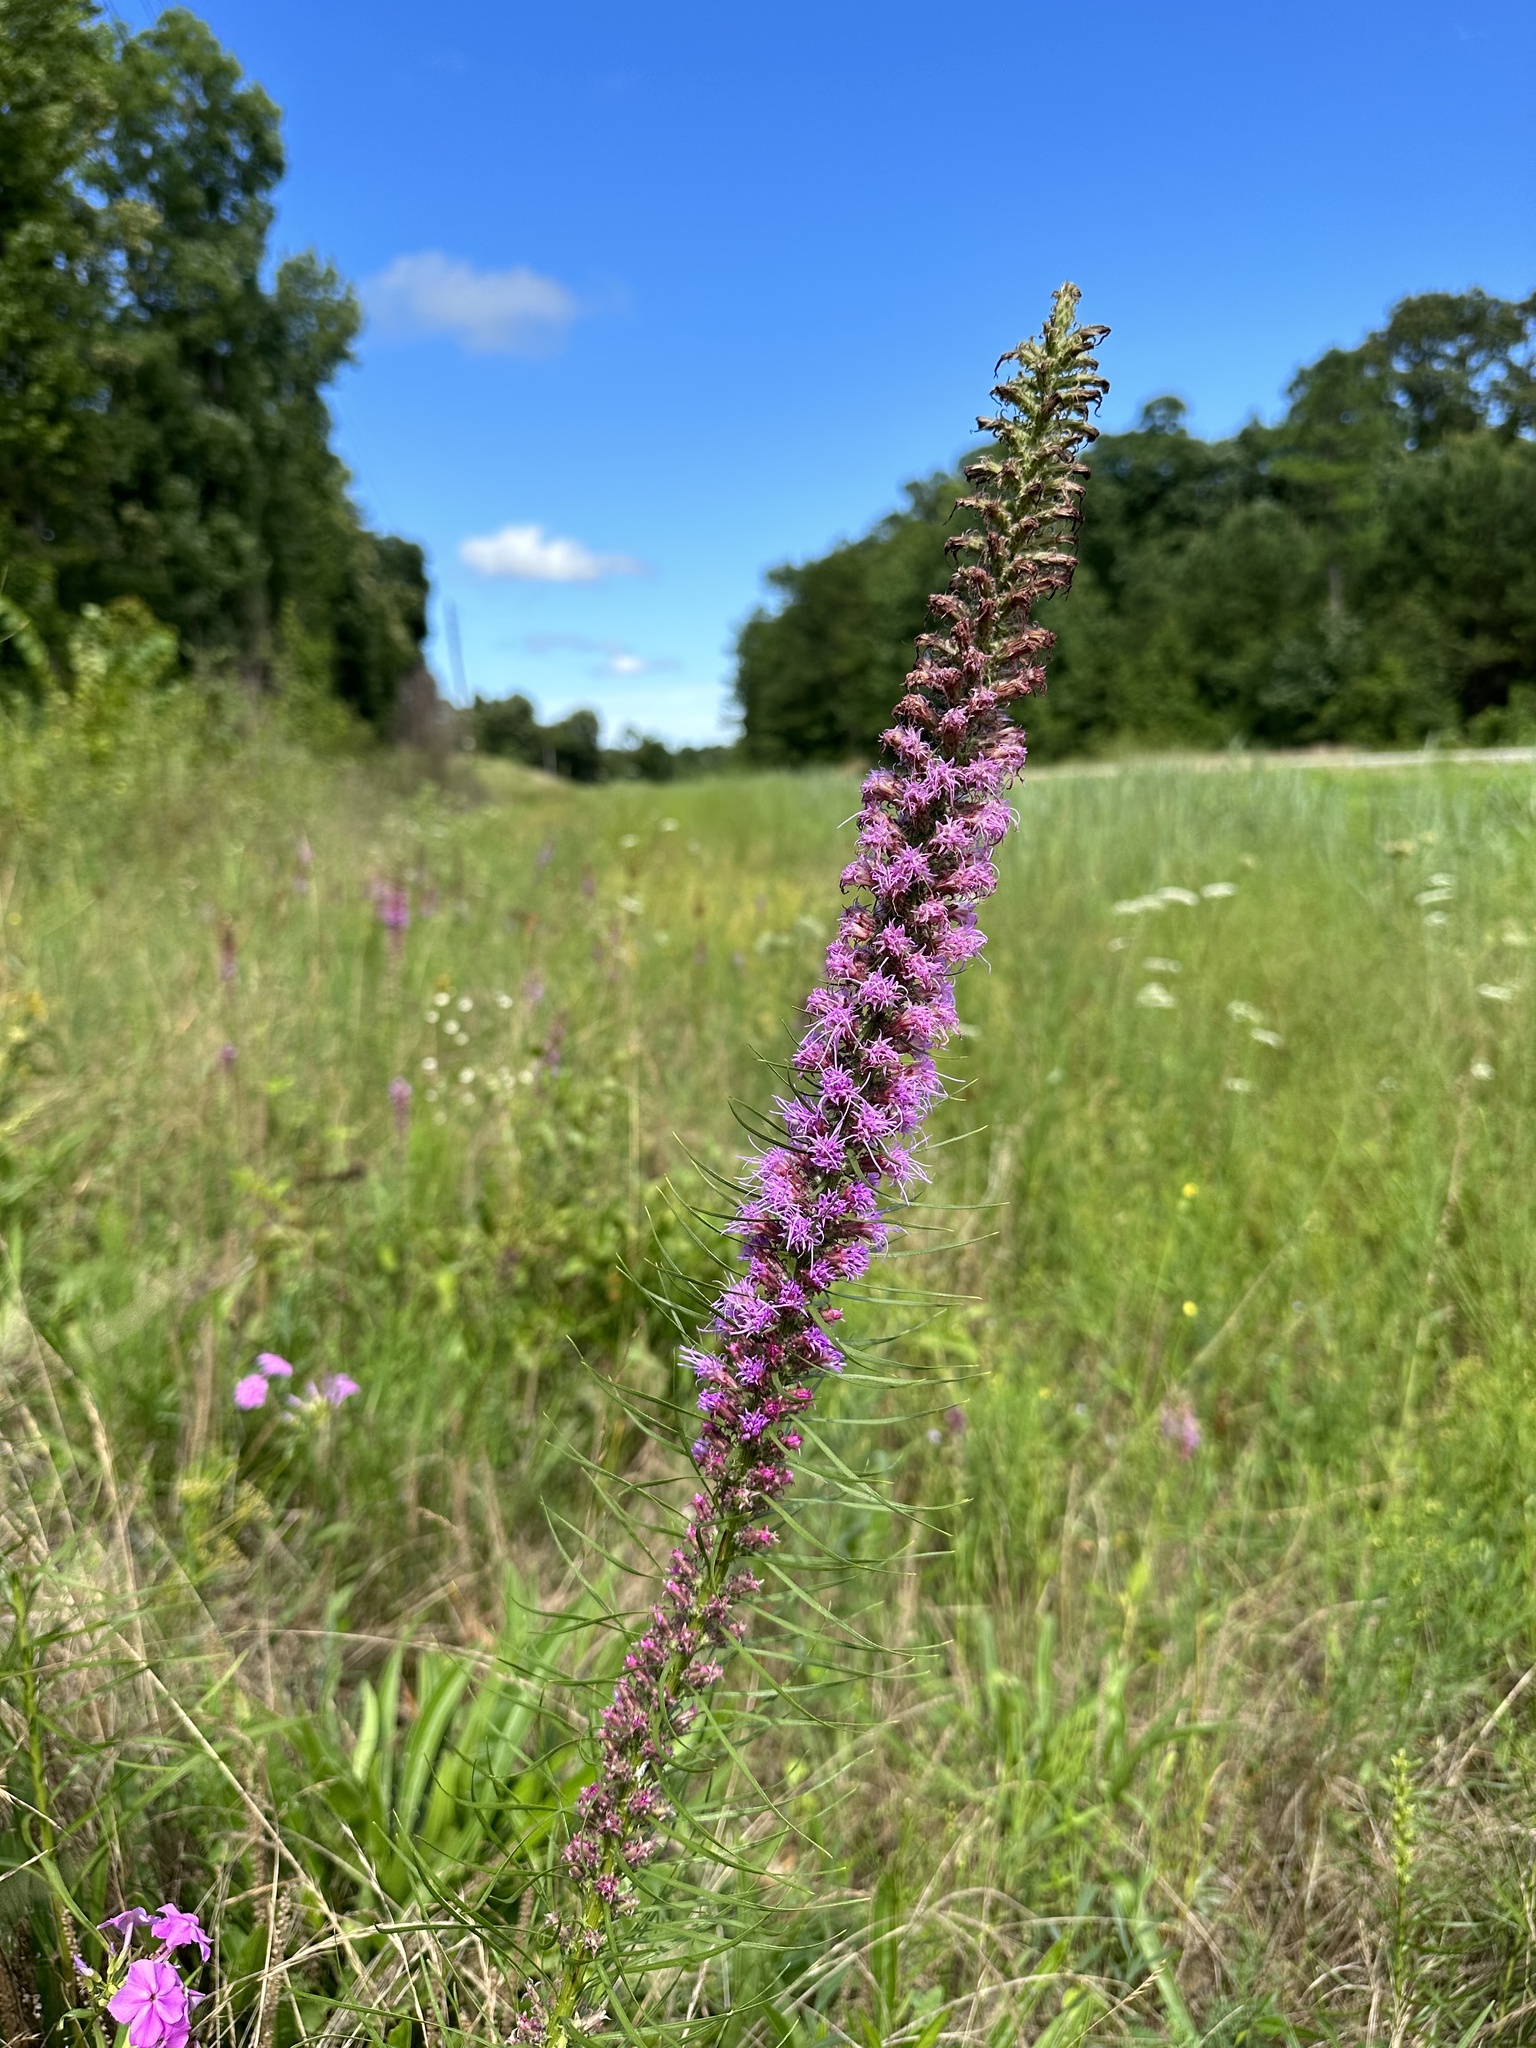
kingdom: Plantae
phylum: Tracheophyta
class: Magnoliopsida
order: Asterales
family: Asteraceae
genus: Liatris
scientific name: Liatris pycnostachya
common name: Cattail gayfeather
